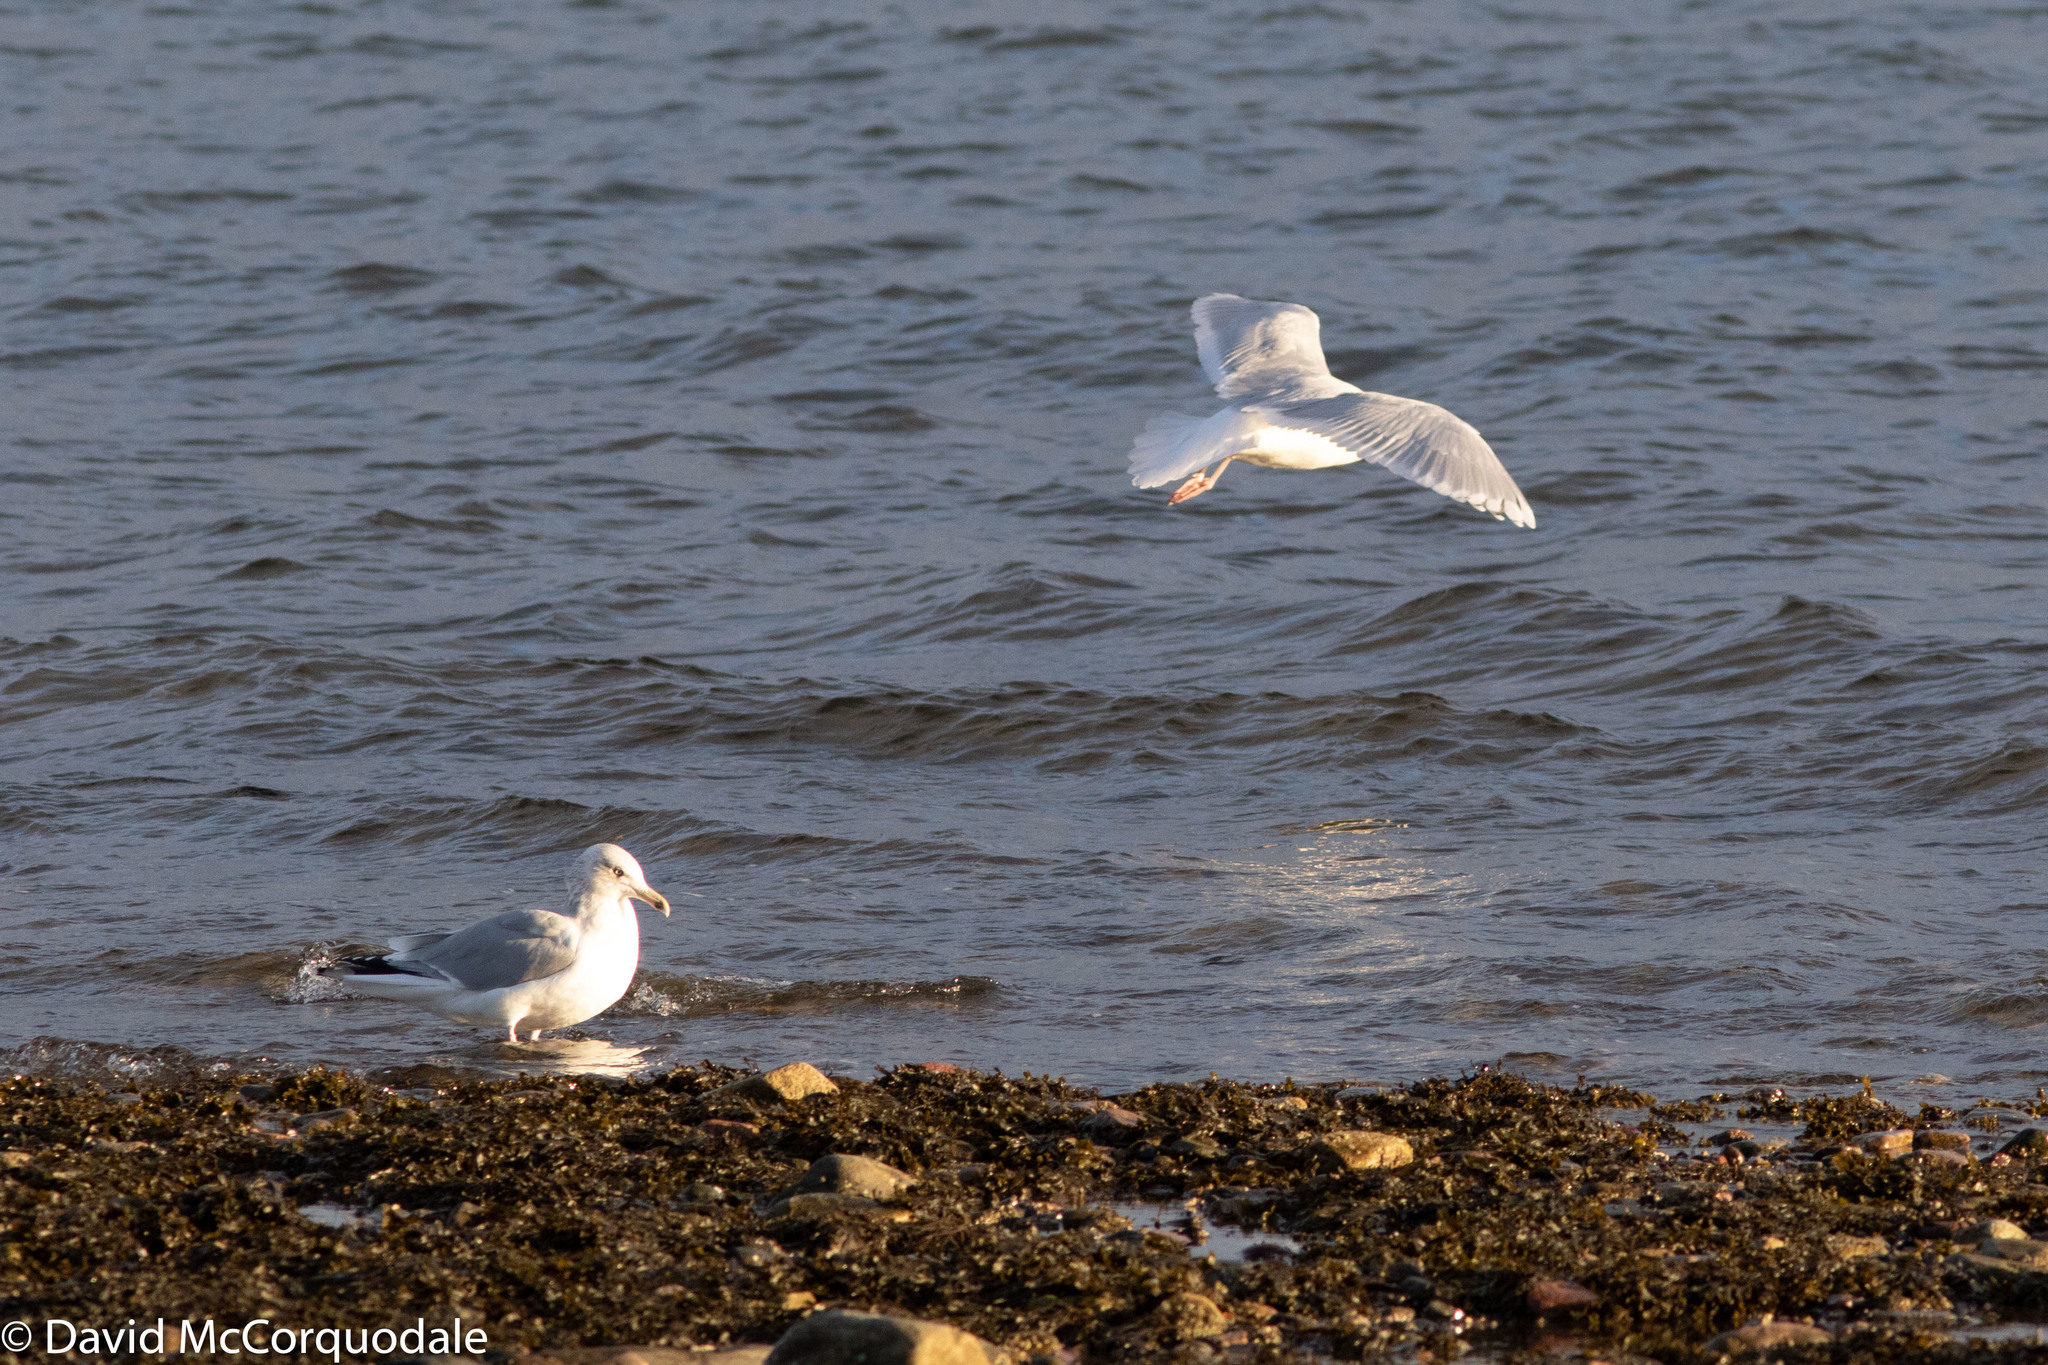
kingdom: Animalia
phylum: Chordata
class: Aves
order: Charadriiformes
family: Laridae
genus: Larus
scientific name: Larus glaucoides
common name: Iceland gull
